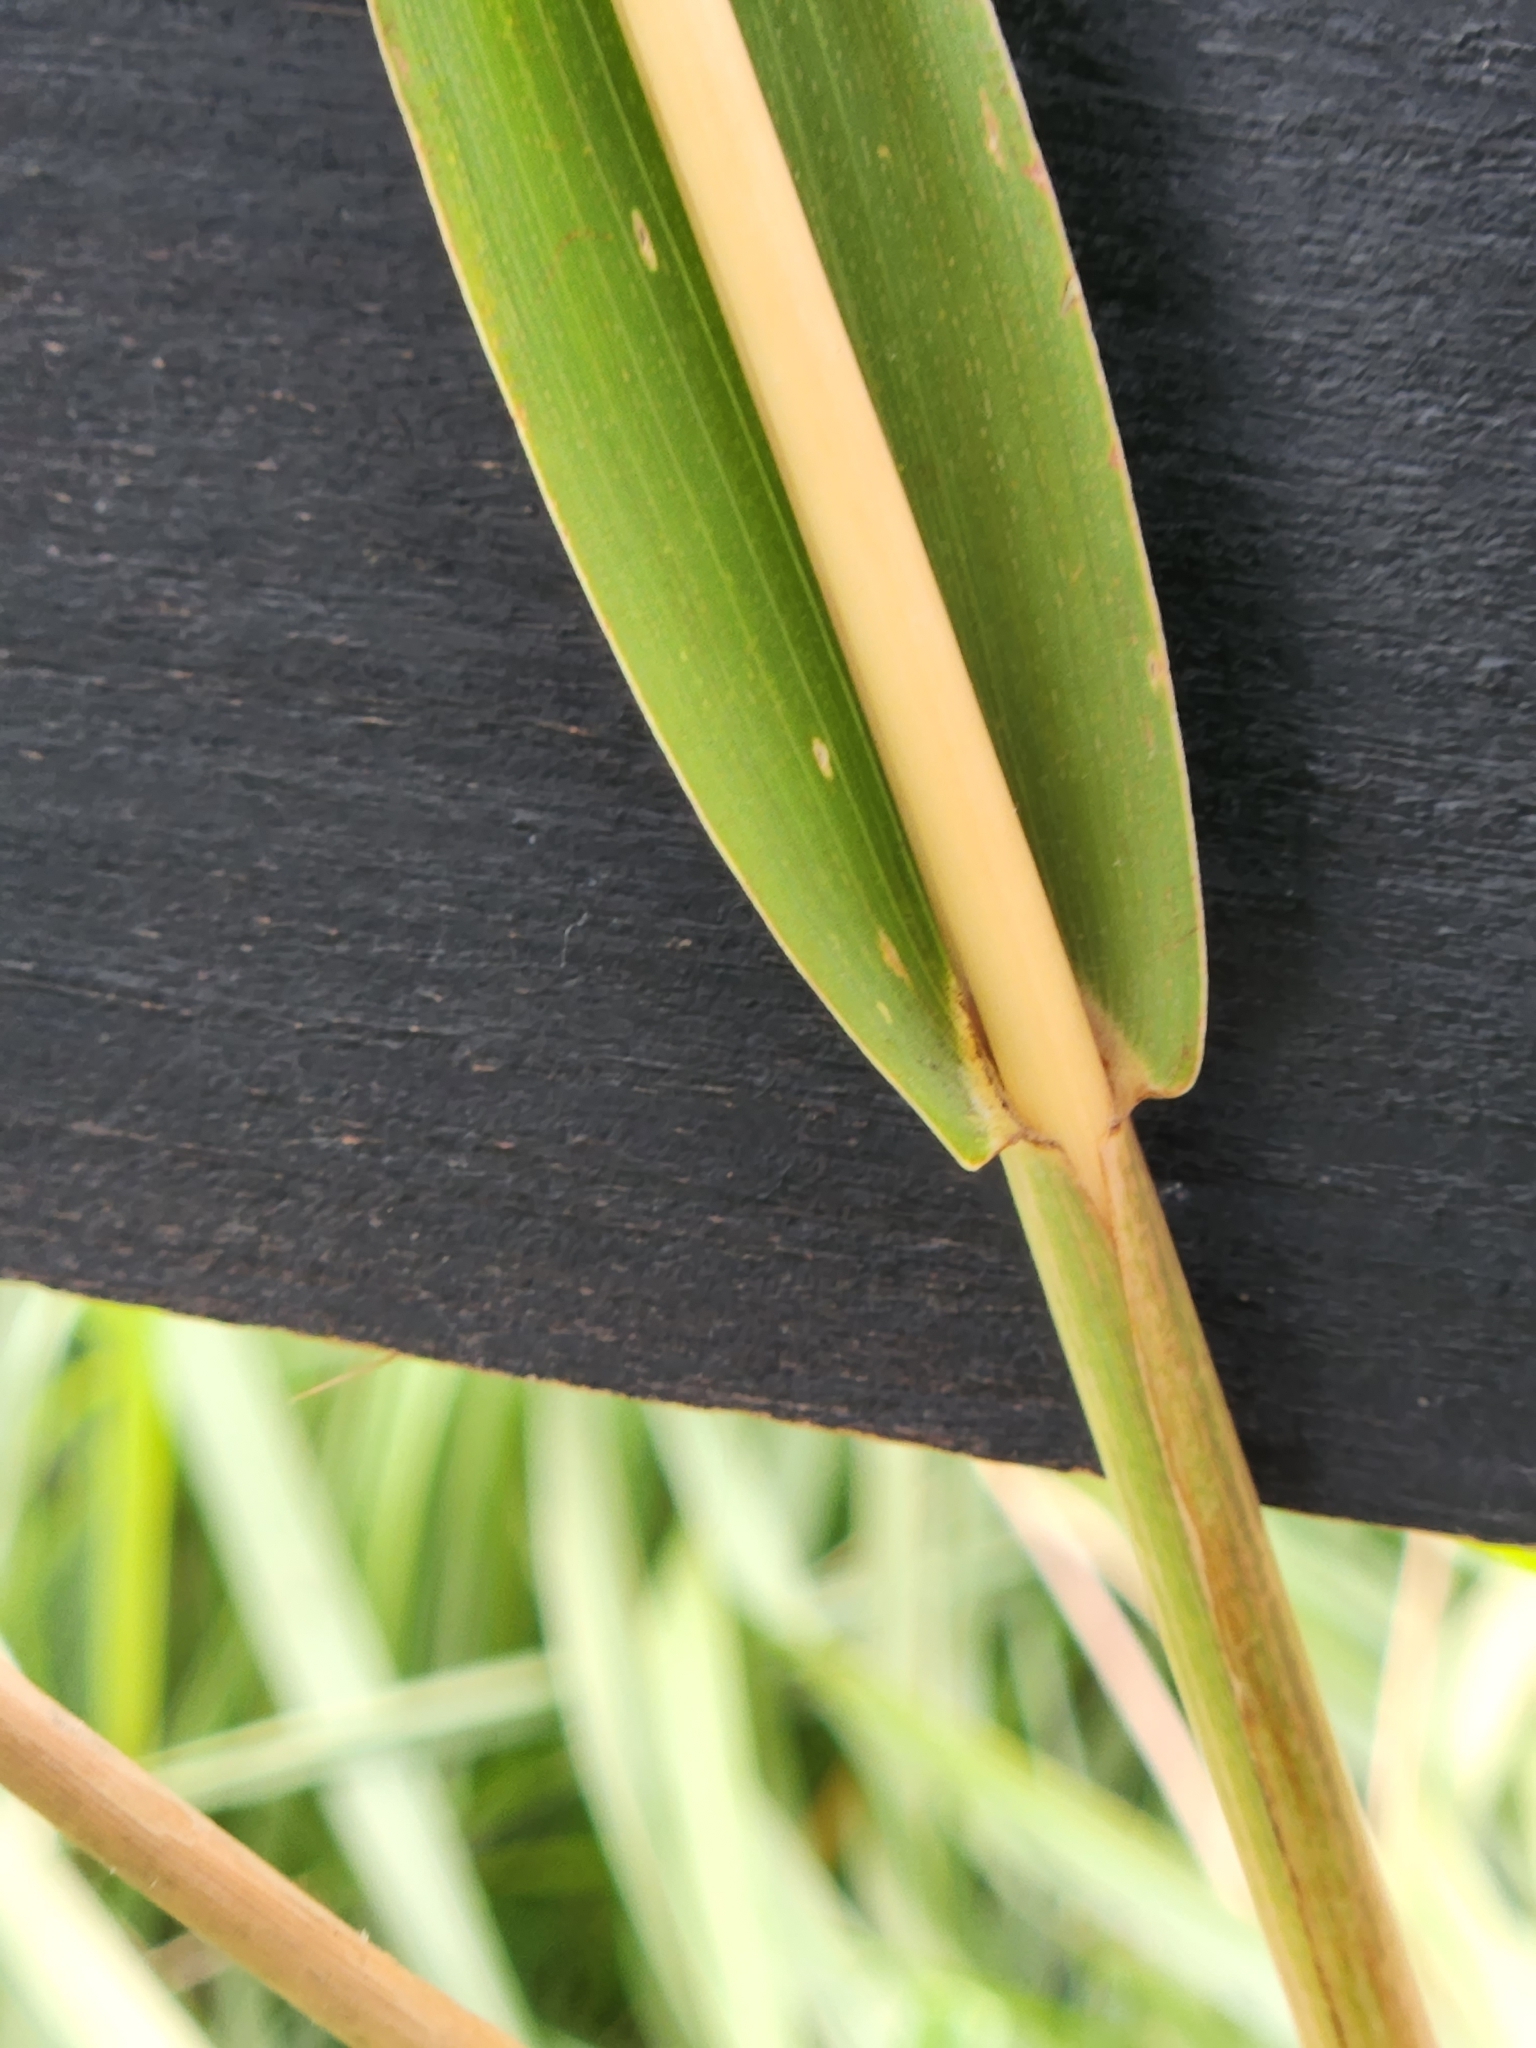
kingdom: Plantae
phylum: Tracheophyta
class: Liliopsida
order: Poales
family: Poaceae
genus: Tripsacum
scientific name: Tripsacum dactyloides
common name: Buffalo-grass
